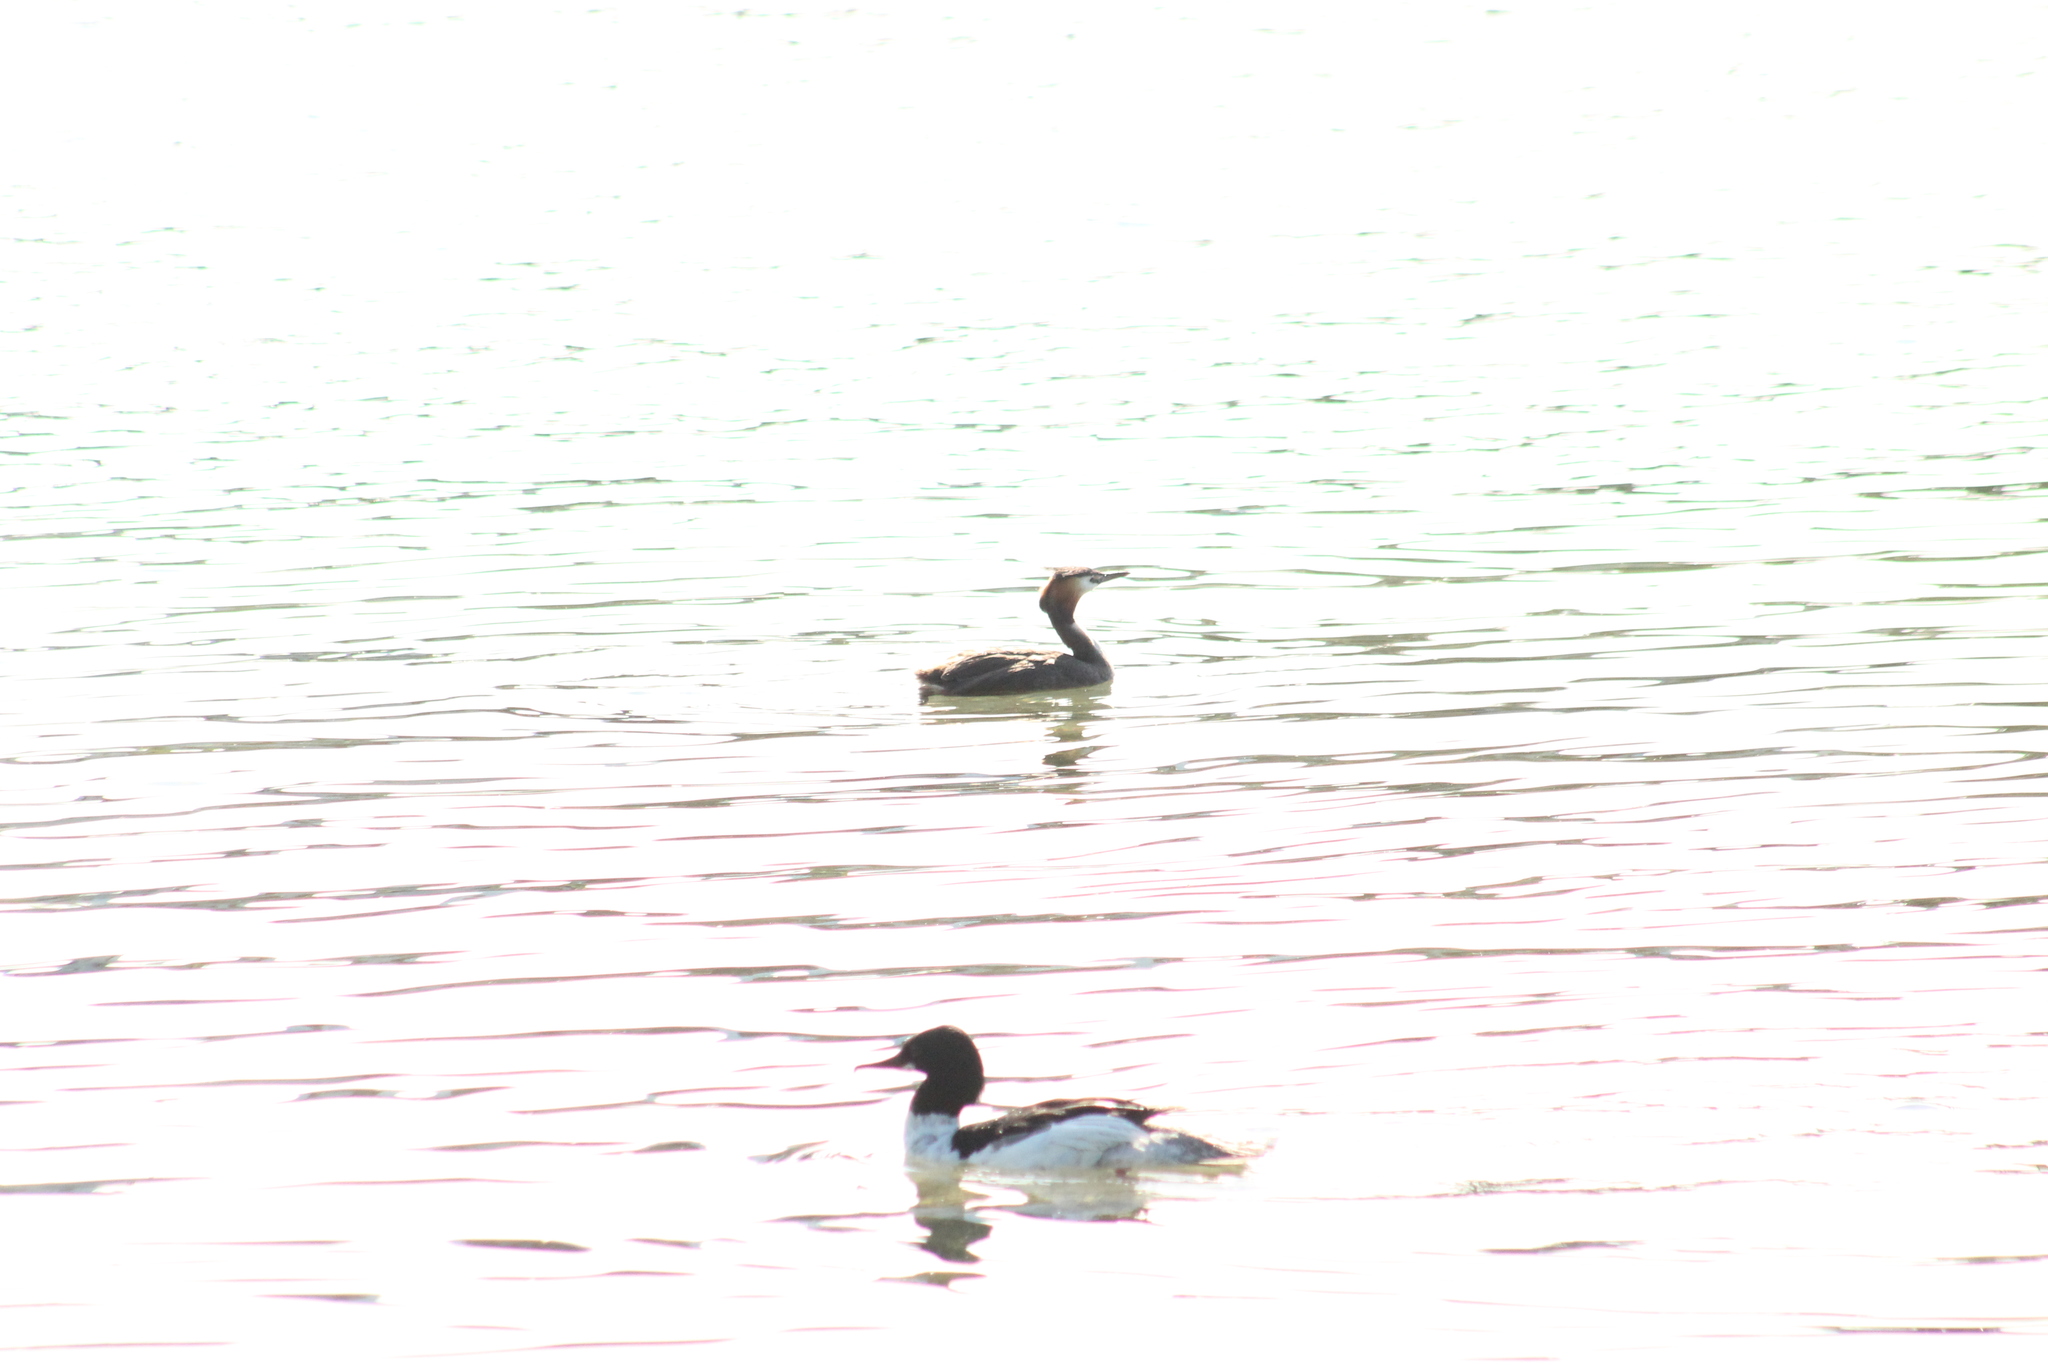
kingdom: Animalia
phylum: Chordata
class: Aves
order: Podicipediformes
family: Podicipedidae
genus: Podiceps
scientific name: Podiceps cristatus
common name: Great crested grebe
